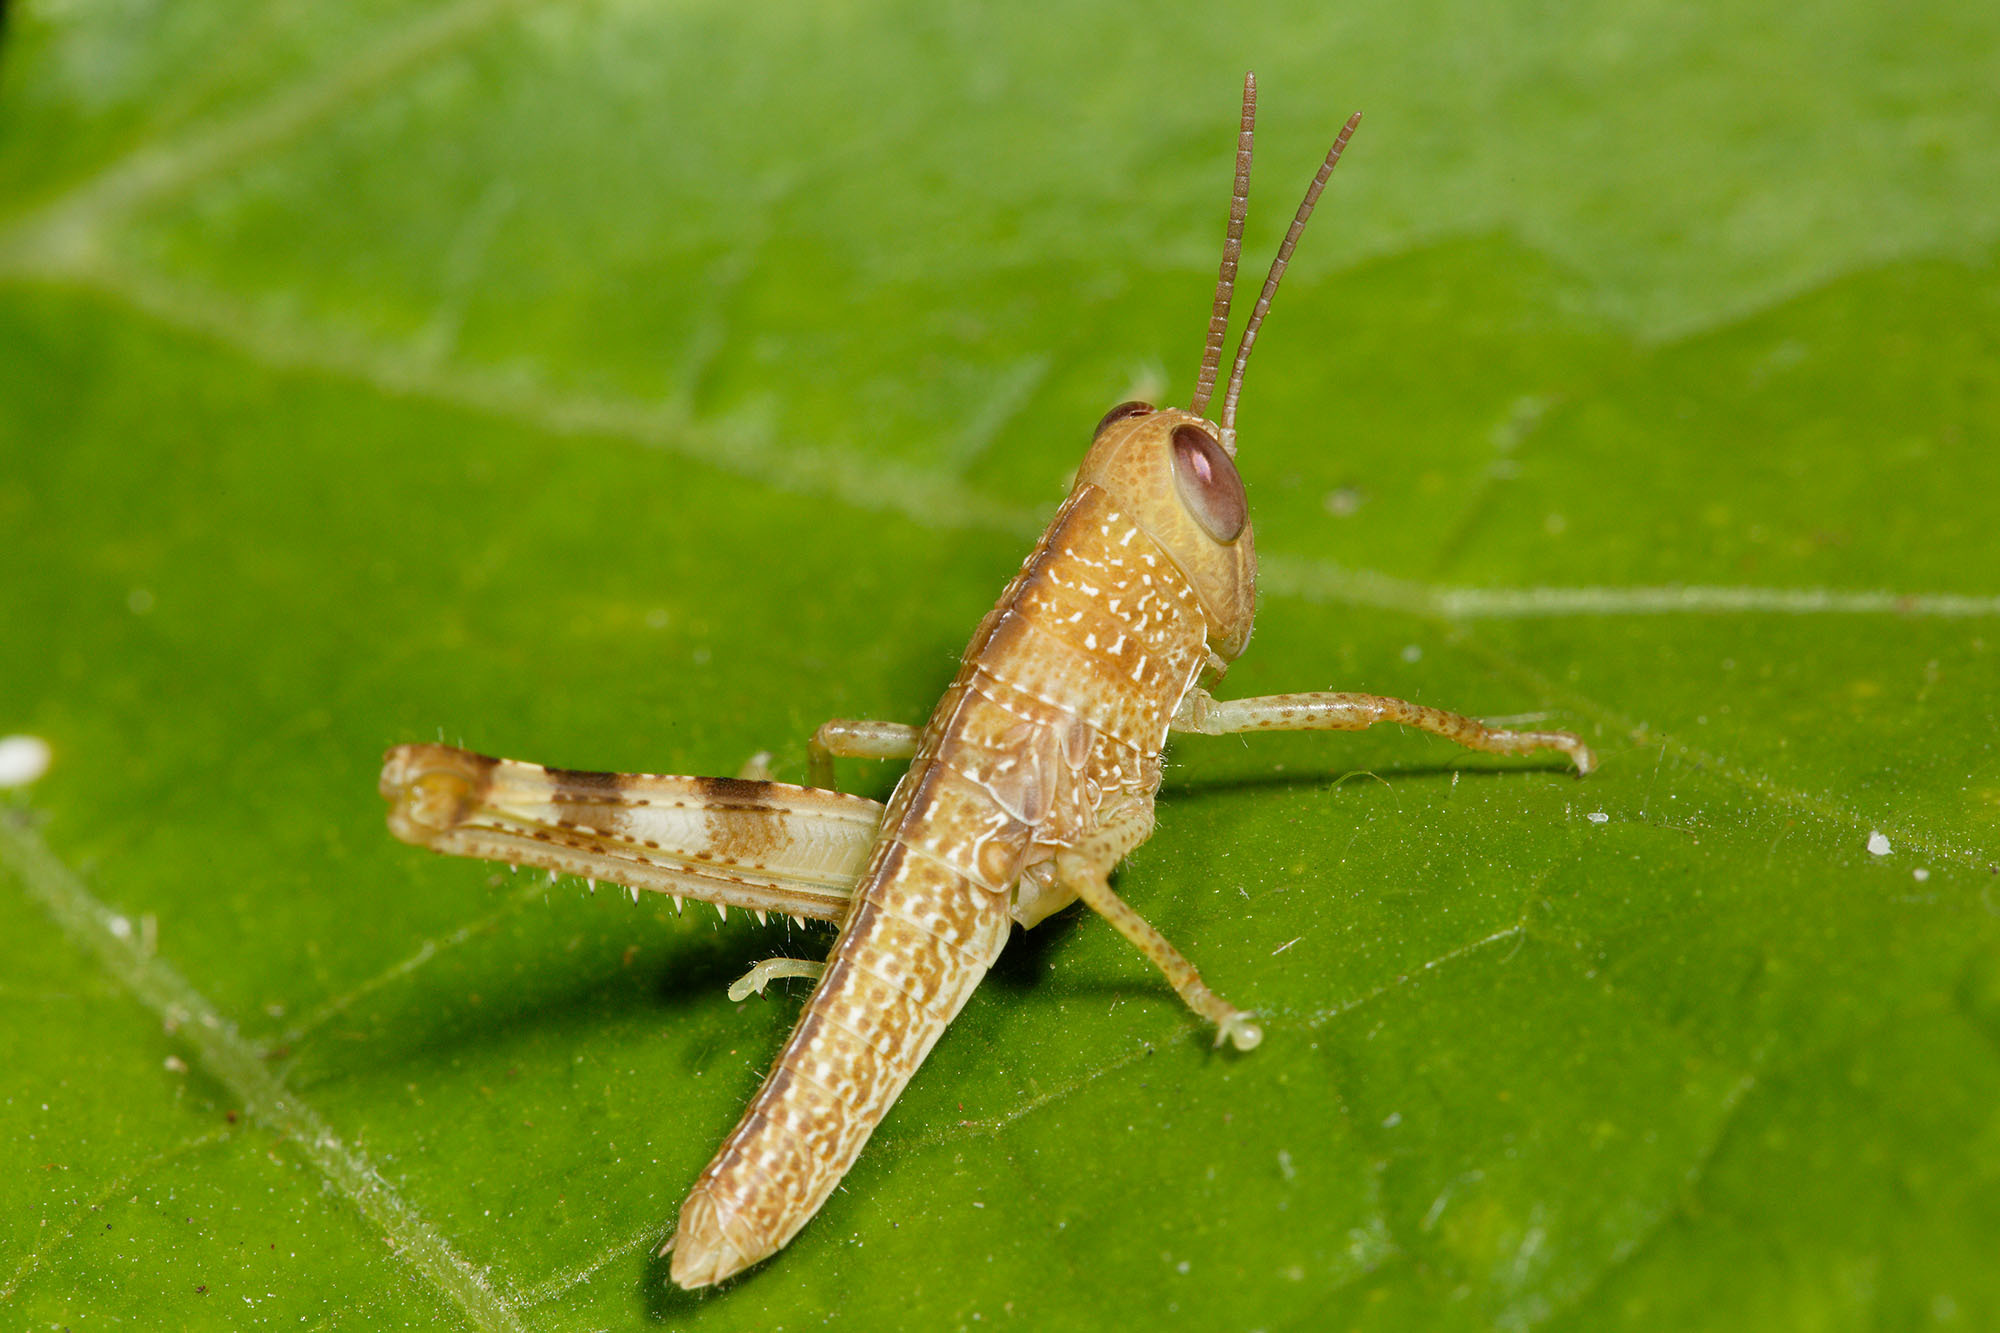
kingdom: Animalia
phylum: Arthropoda
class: Insecta
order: Orthoptera
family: Acrididae
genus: Valanga
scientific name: Valanga irregularis
